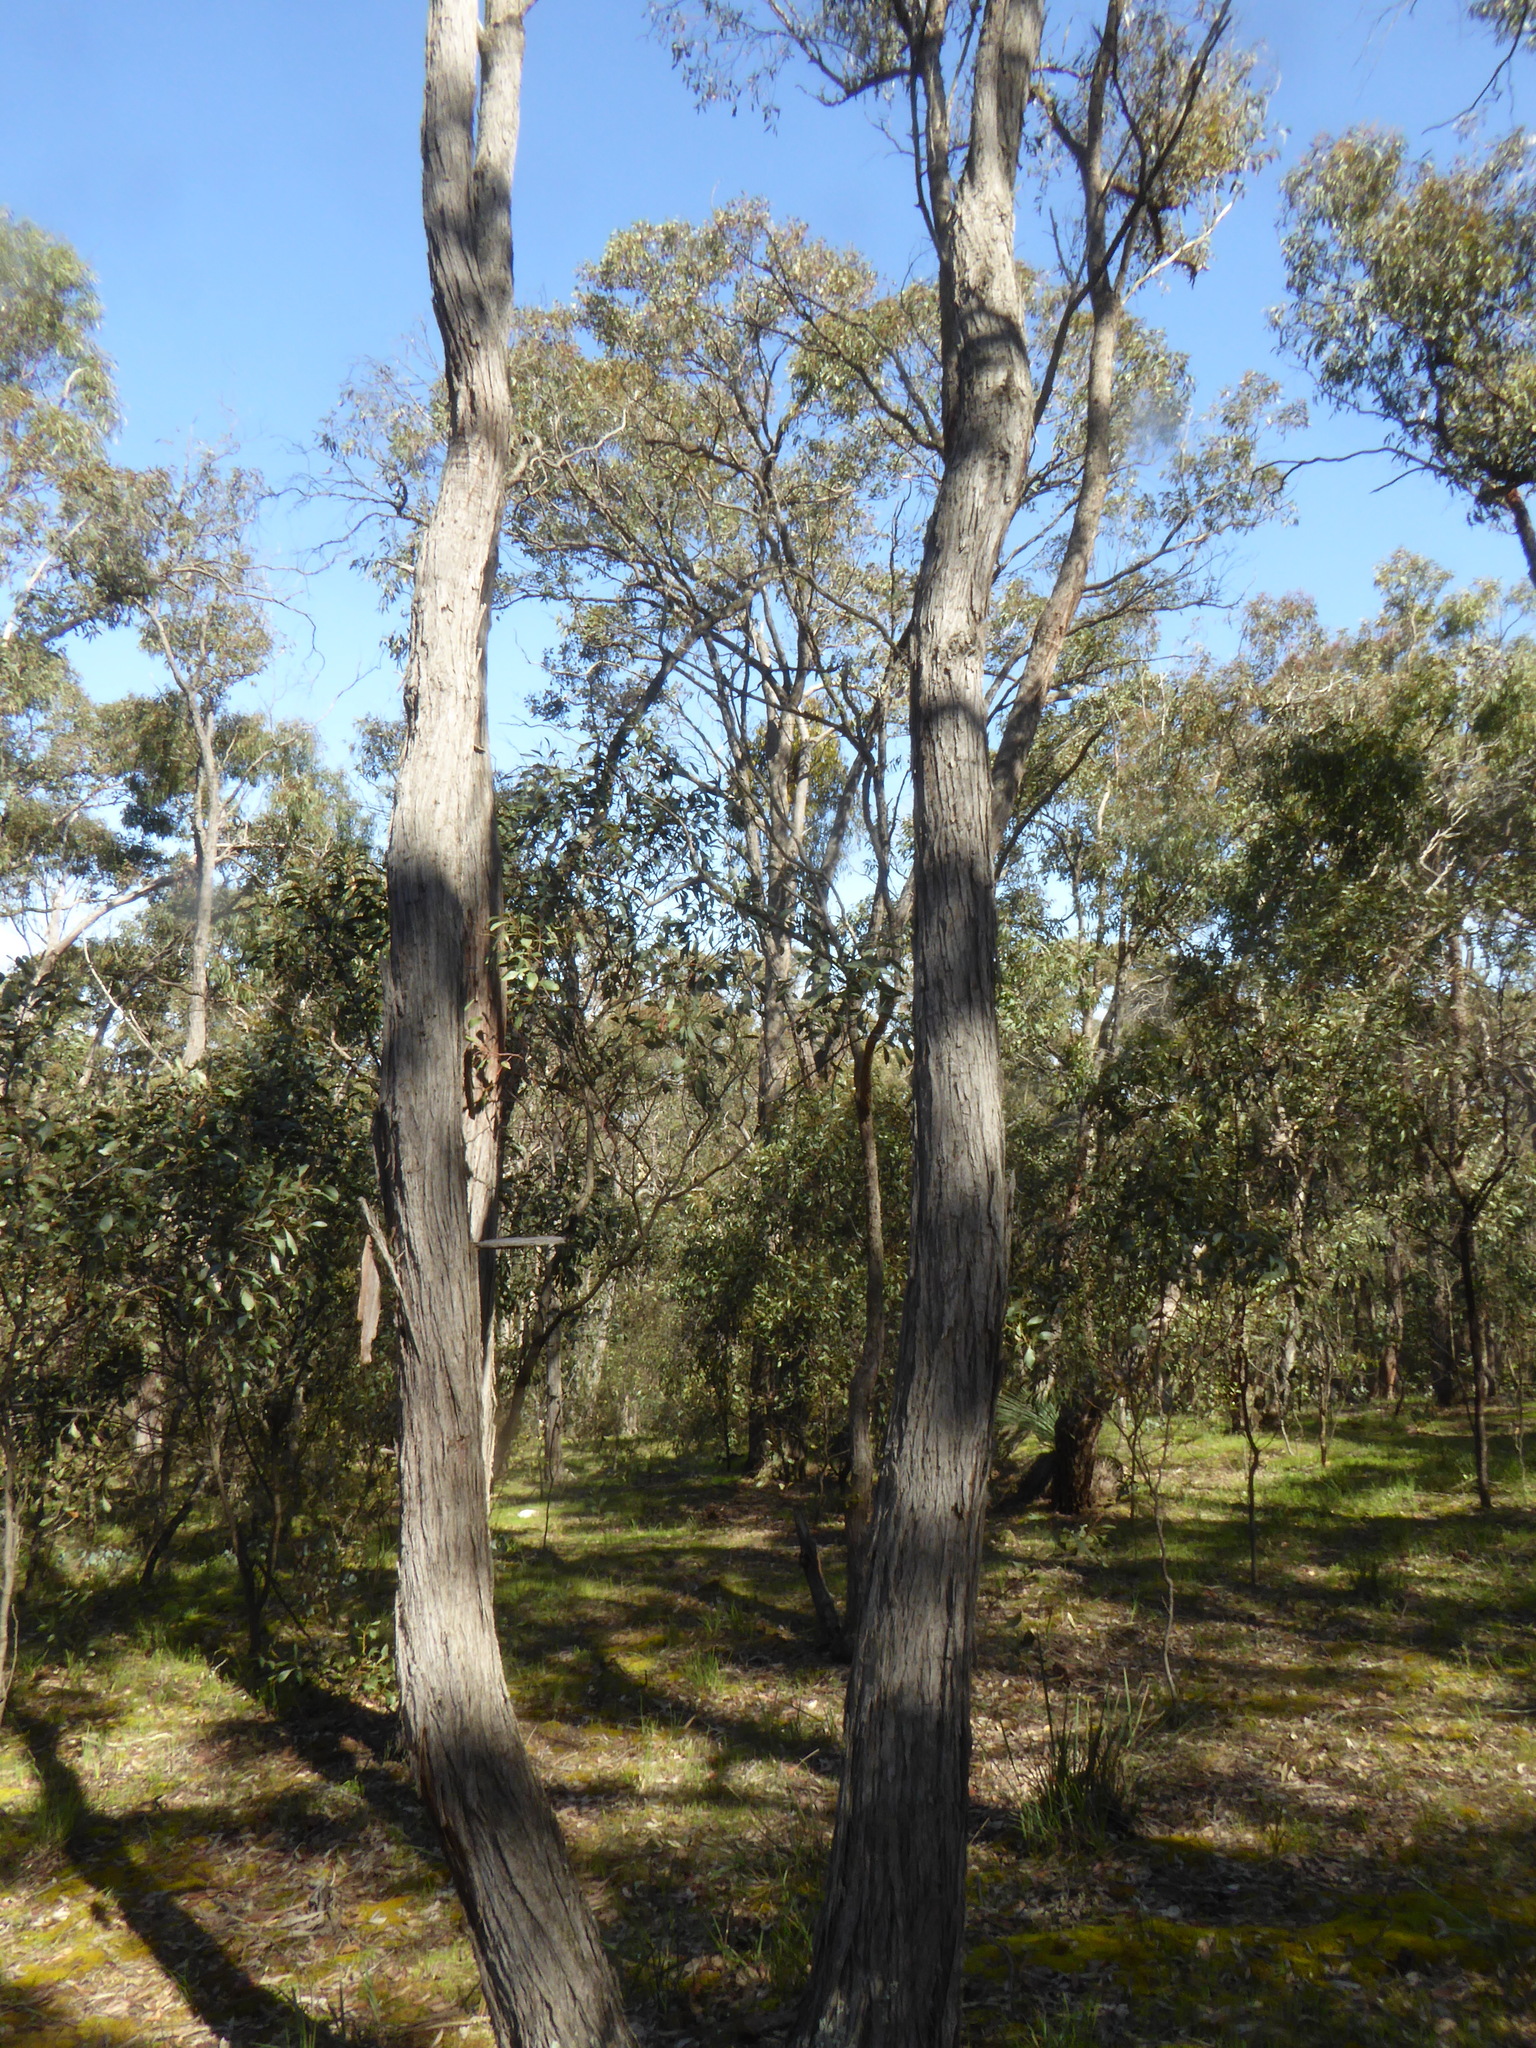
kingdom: Plantae
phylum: Tracheophyta
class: Magnoliopsida
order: Myrtales
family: Myrtaceae
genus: Eucalyptus
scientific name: Eucalyptus macrorhyncha
